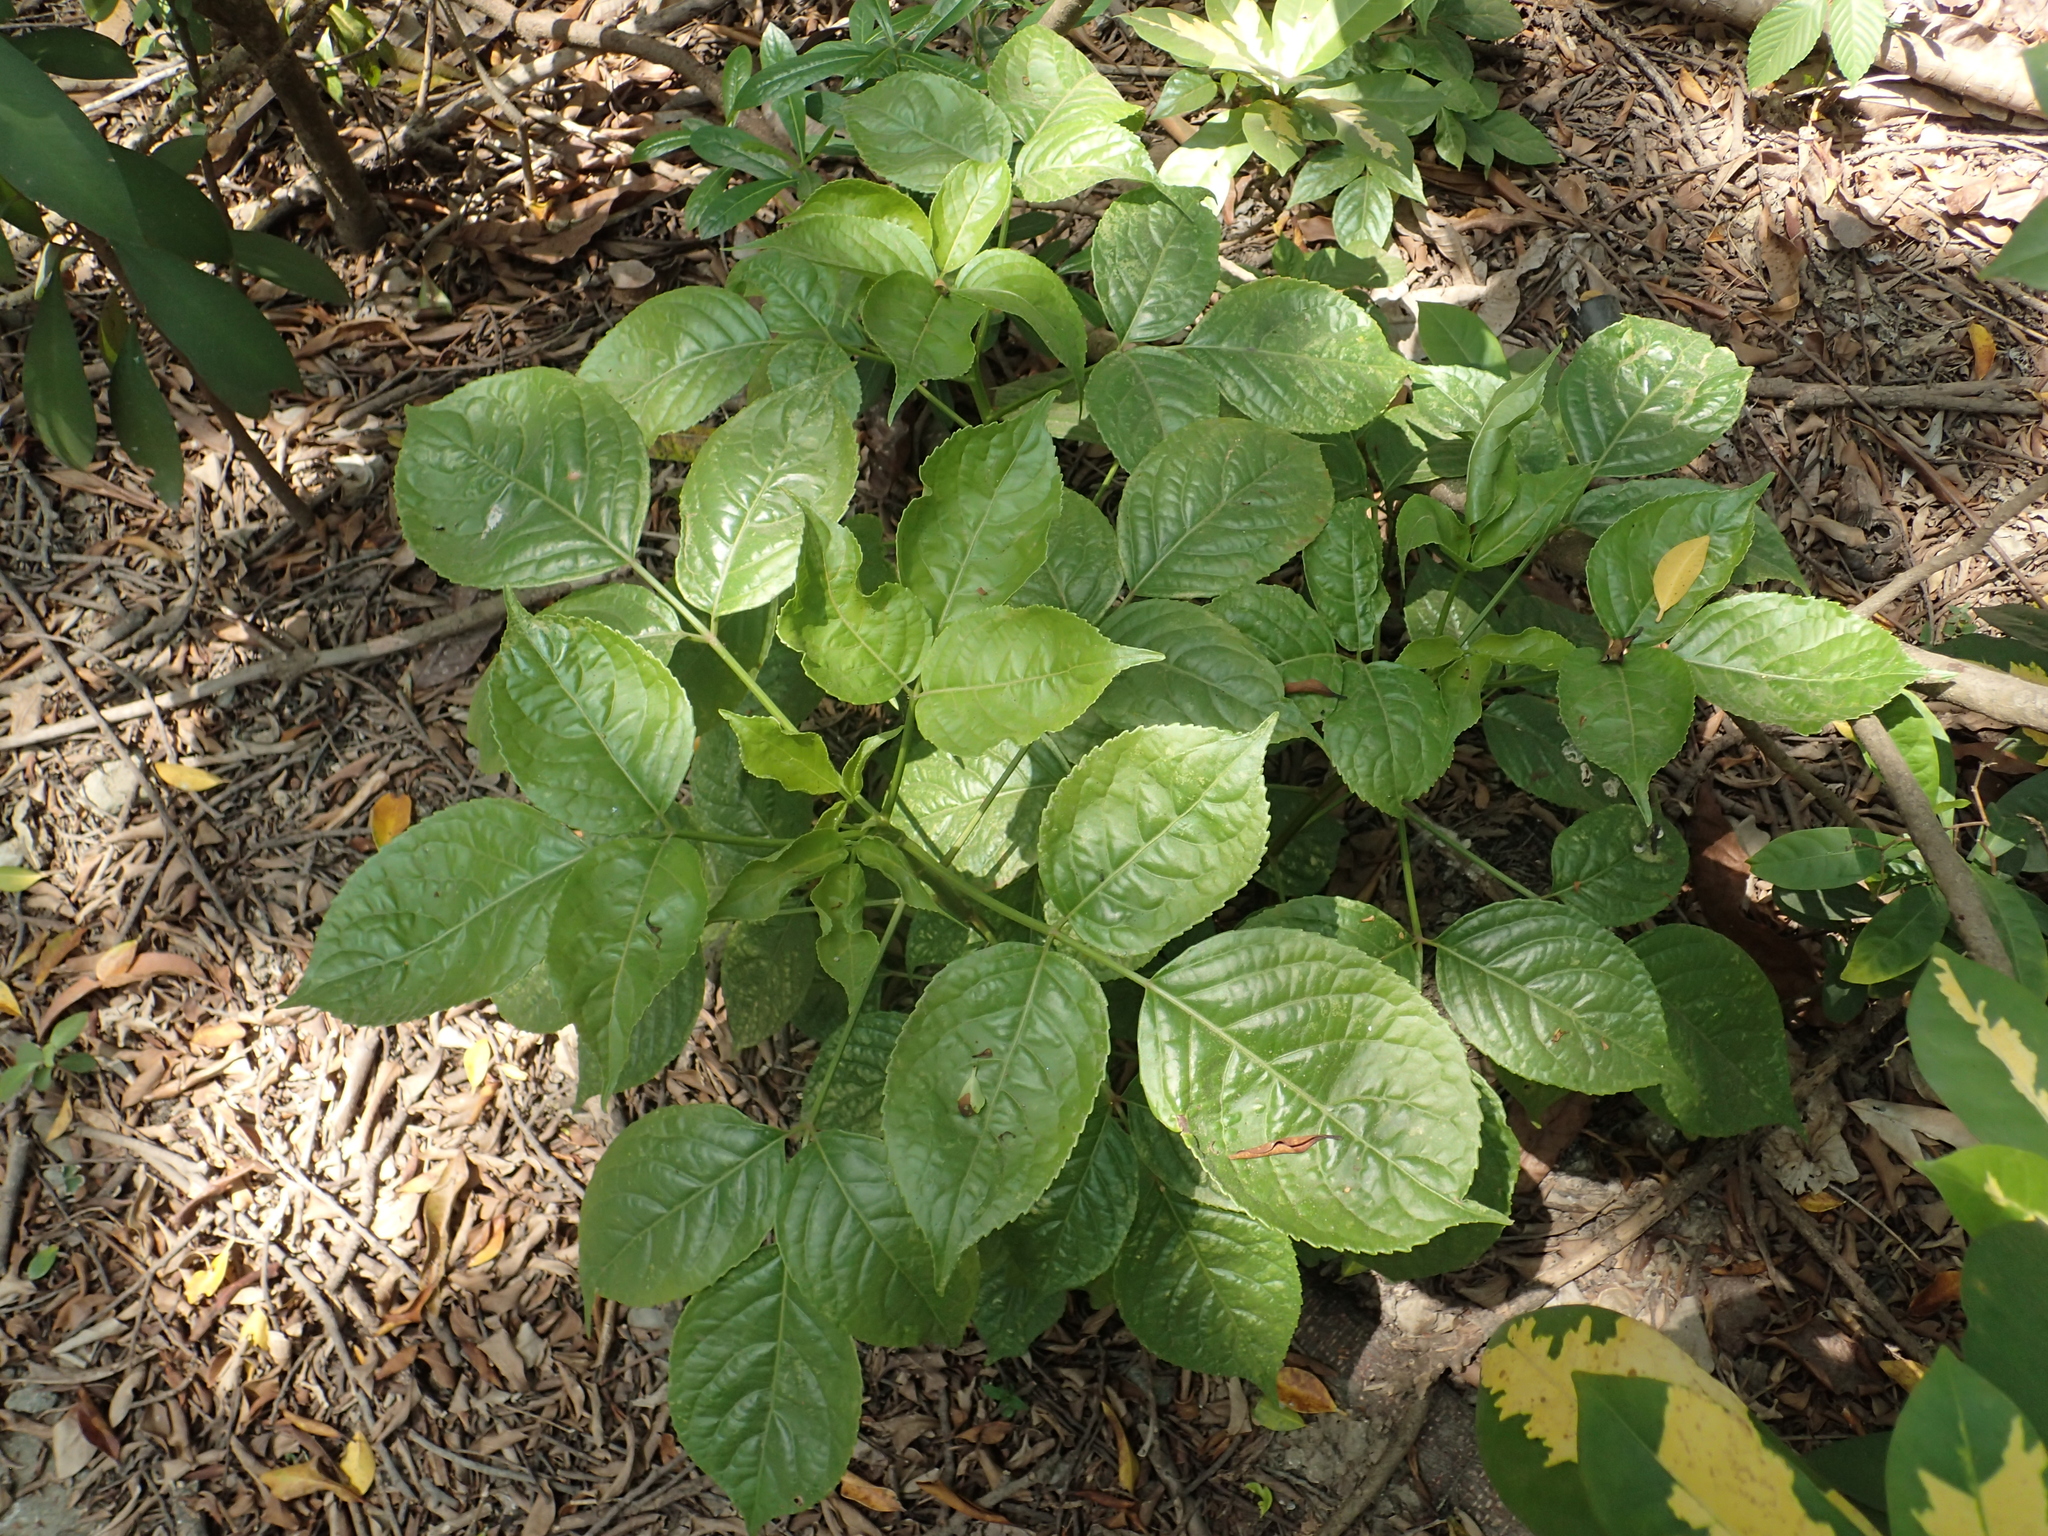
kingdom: Plantae
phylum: Tracheophyta
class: Magnoliopsida
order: Malpighiales
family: Phyllanthaceae
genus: Bischofia
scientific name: Bischofia javanica
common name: Javanese bishopwood
